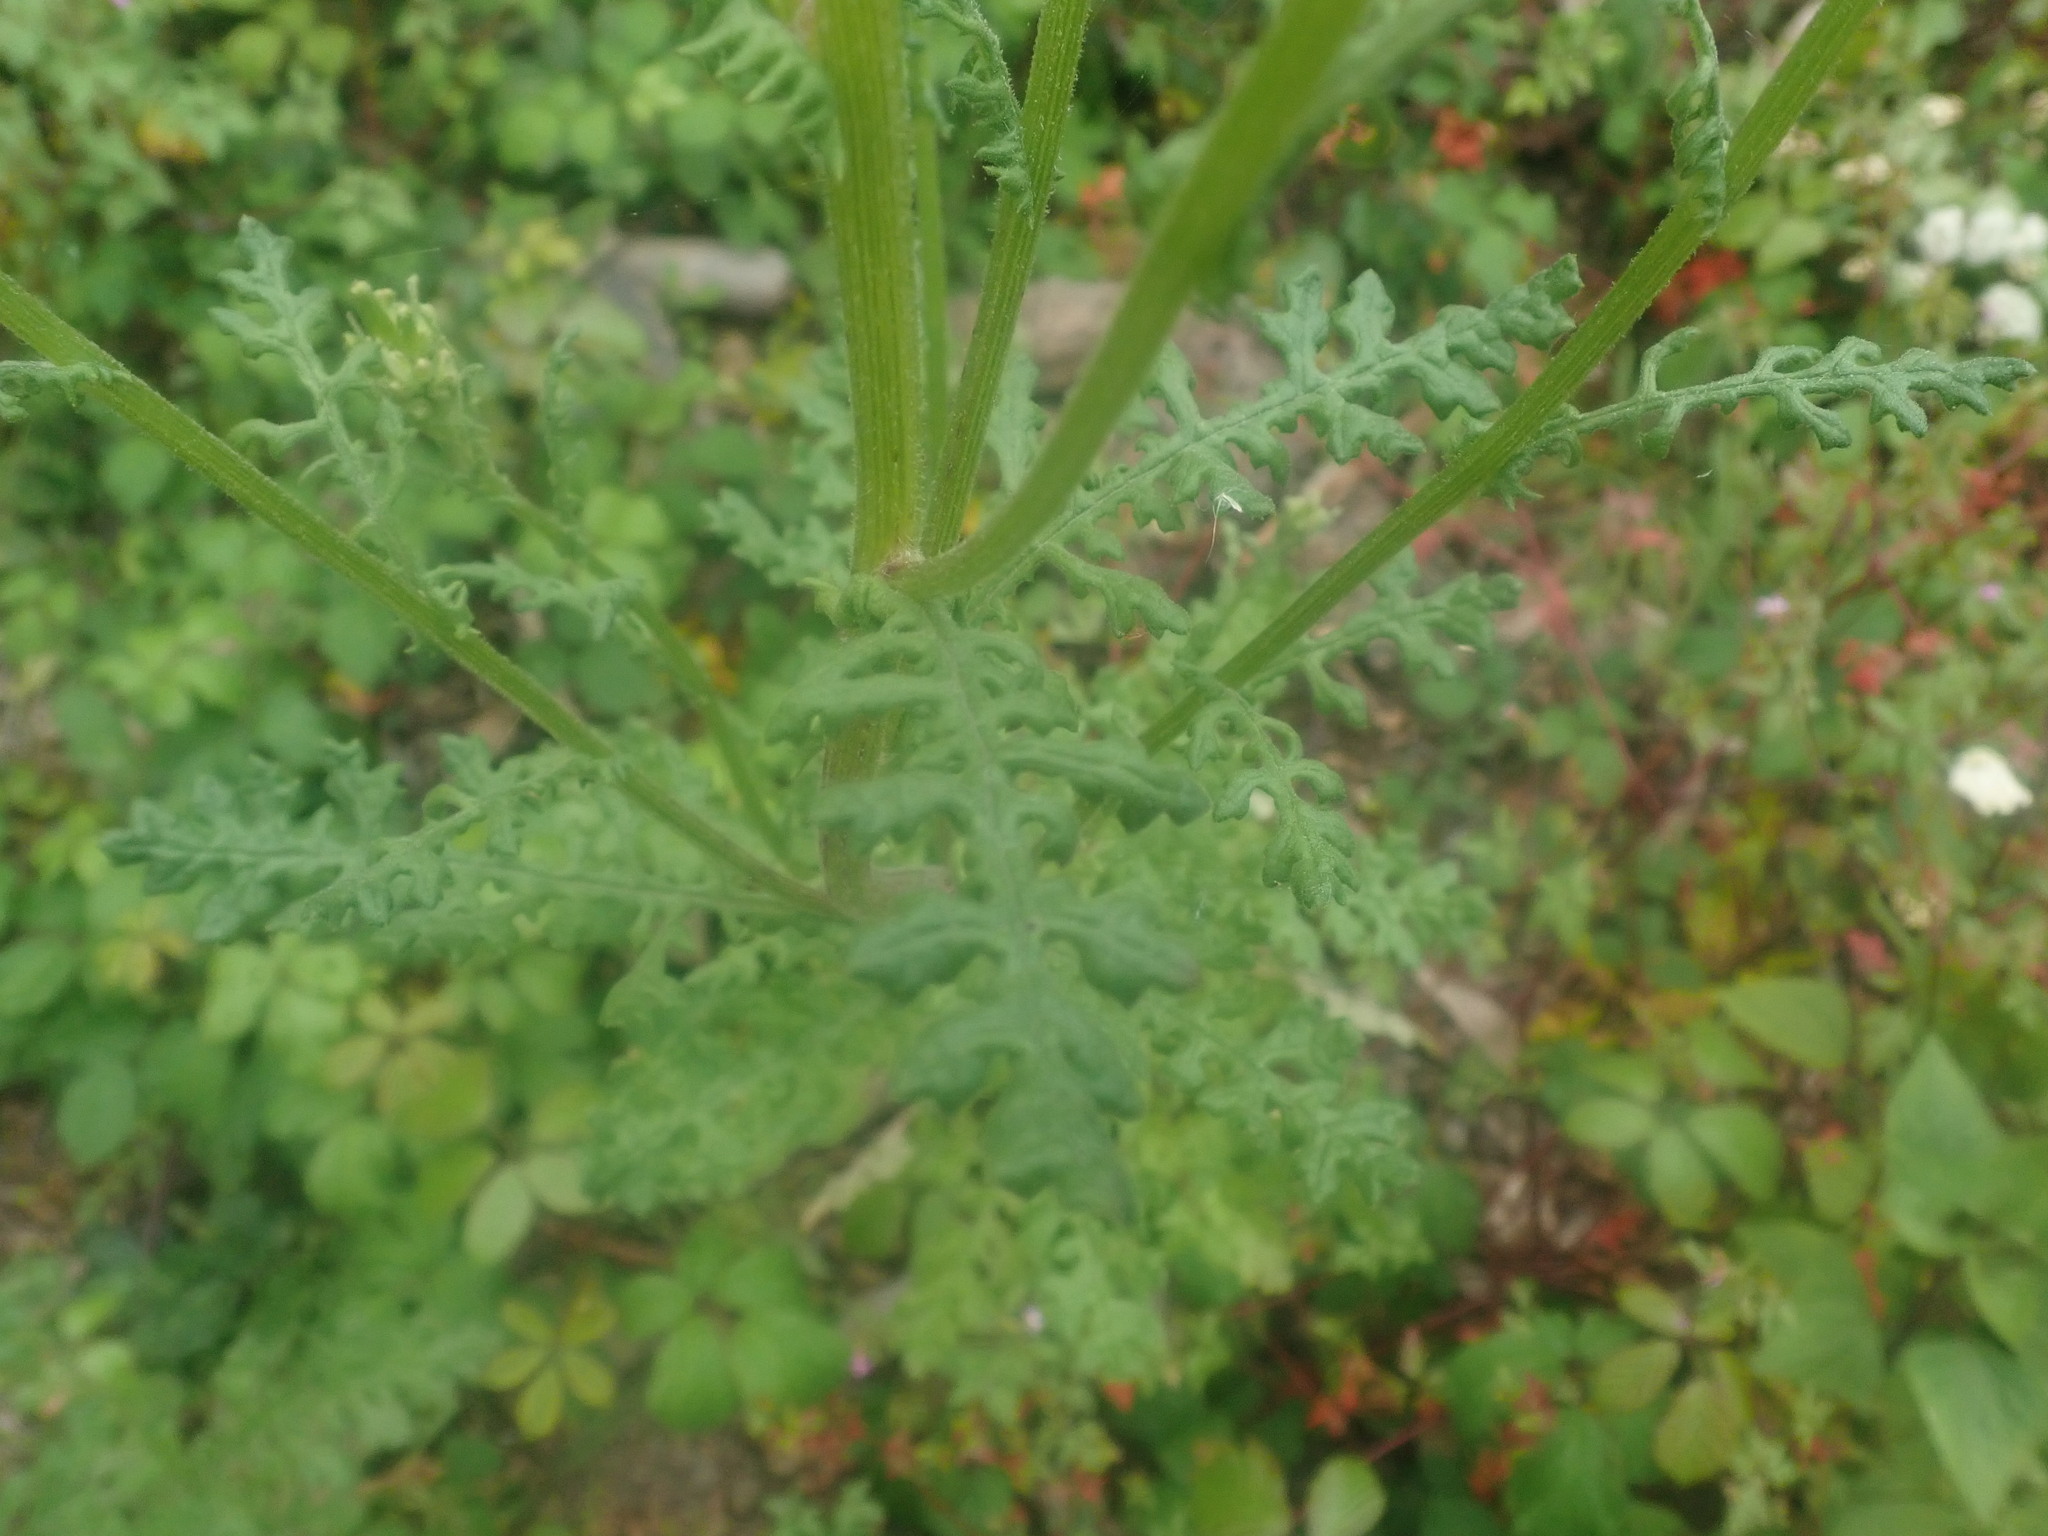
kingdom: Plantae
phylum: Tracheophyta
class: Magnoliopsida
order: Asterales
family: Asteraceae
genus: Senecio
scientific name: Senecio sylvaticus
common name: Woodland ragwort
